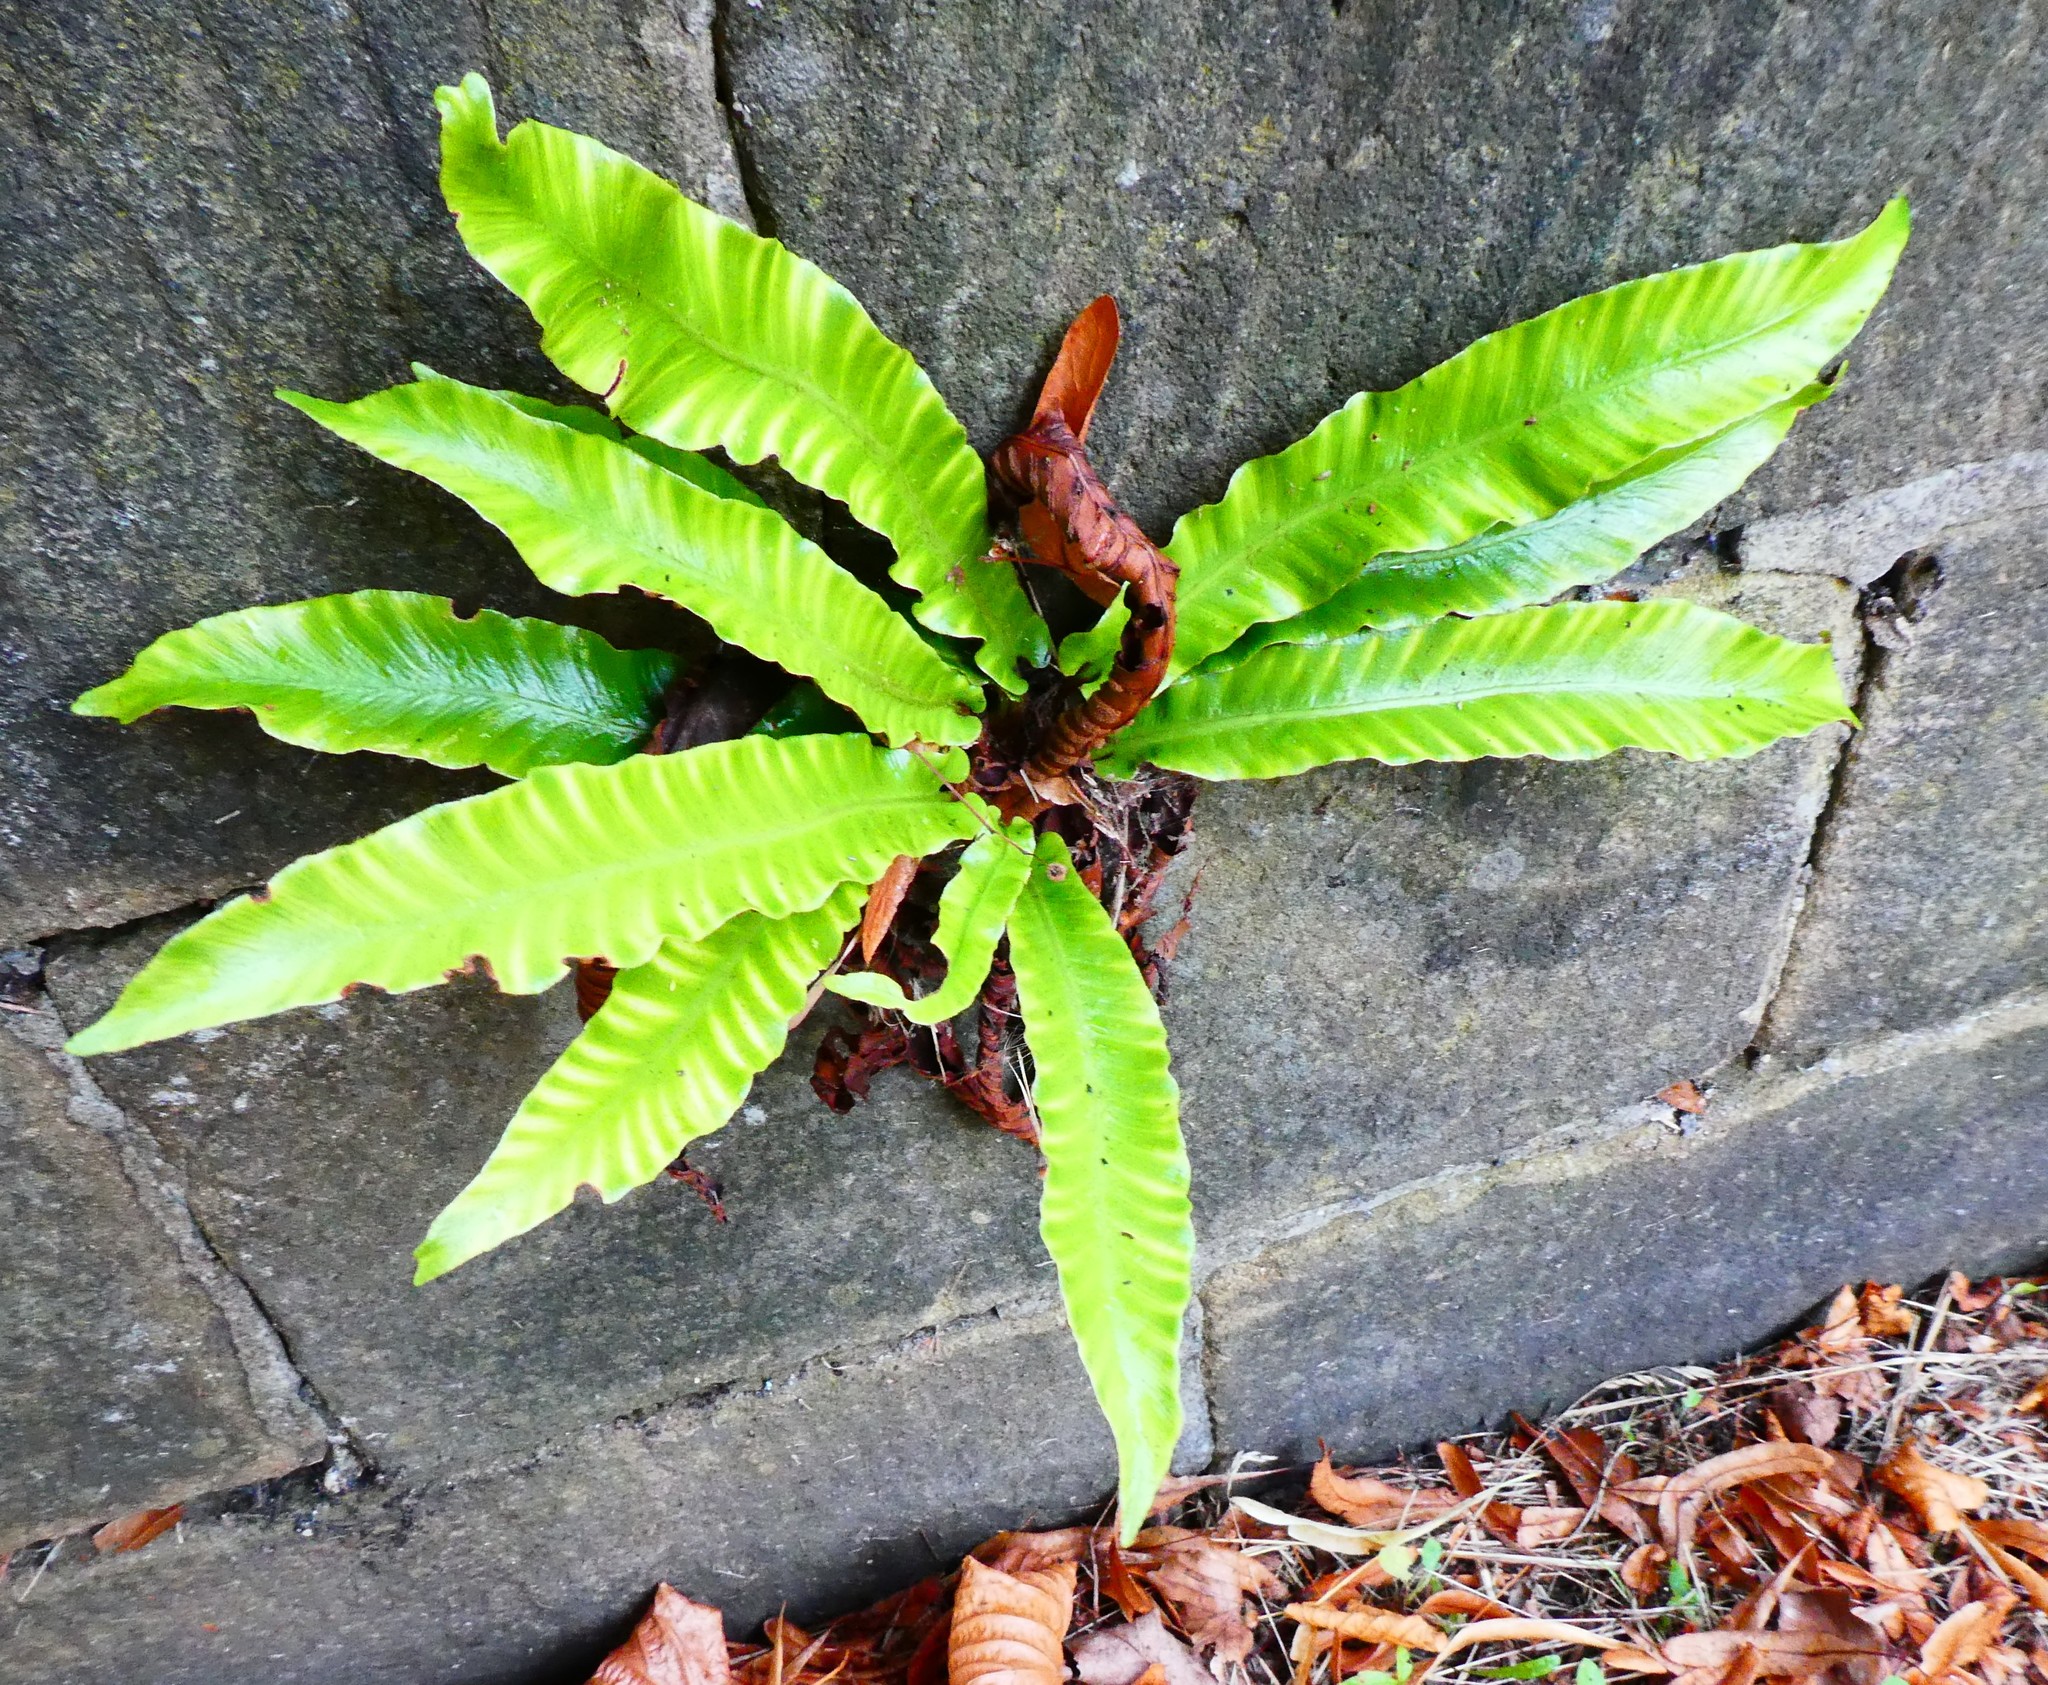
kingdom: Plantae
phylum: Tracheophyta
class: Polypodiopsida
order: Polypodiales
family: Aspleniaceae
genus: Asplenium
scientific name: Asplenium scolopendrium
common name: Hart's-tongue fern
